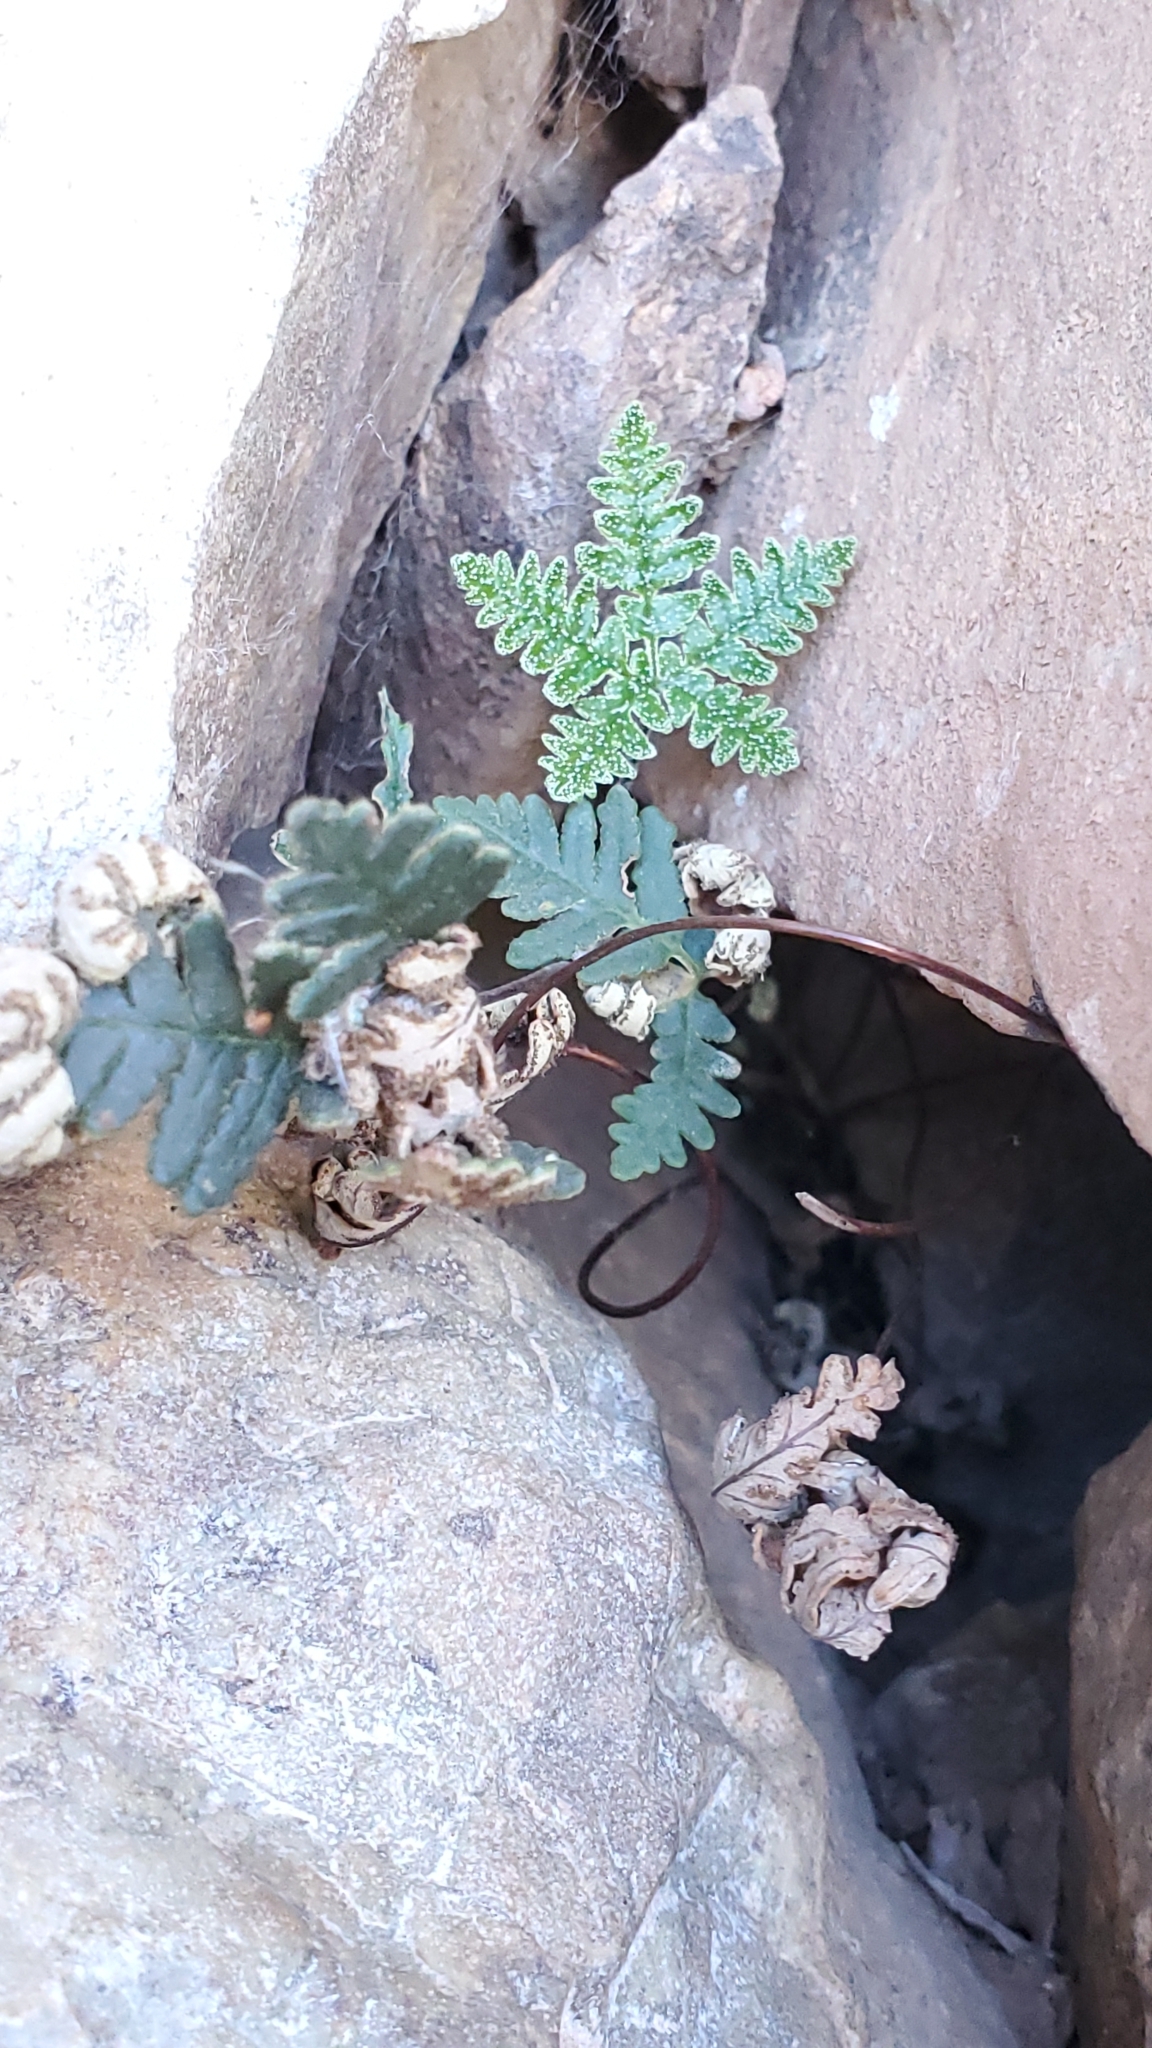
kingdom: Plantae
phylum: Tracheophyta
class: Polypodiopsida
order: Polypodiales
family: Pteridaceae
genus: Notholaena
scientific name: Notholaena standleyi
